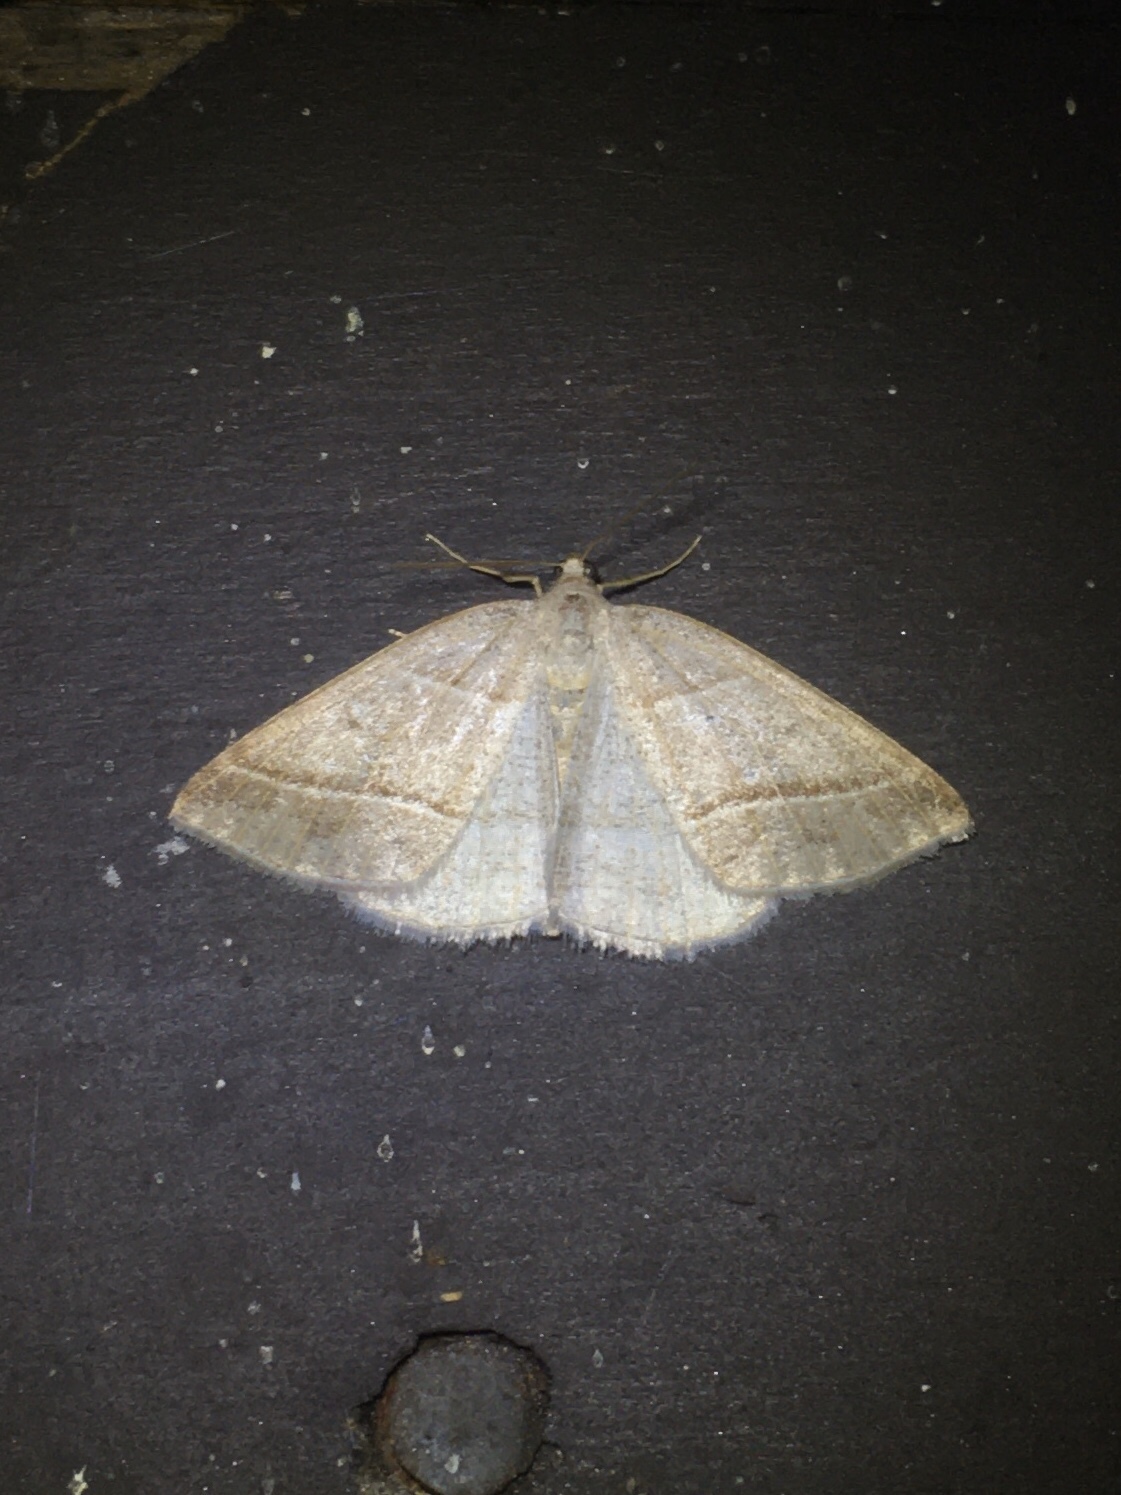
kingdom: Animalia
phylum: Arthropoda
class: Insecta
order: Lepidoptera
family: Pterophoridae
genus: Pterophorus
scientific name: Pterophorus Petrophora subaequaria
